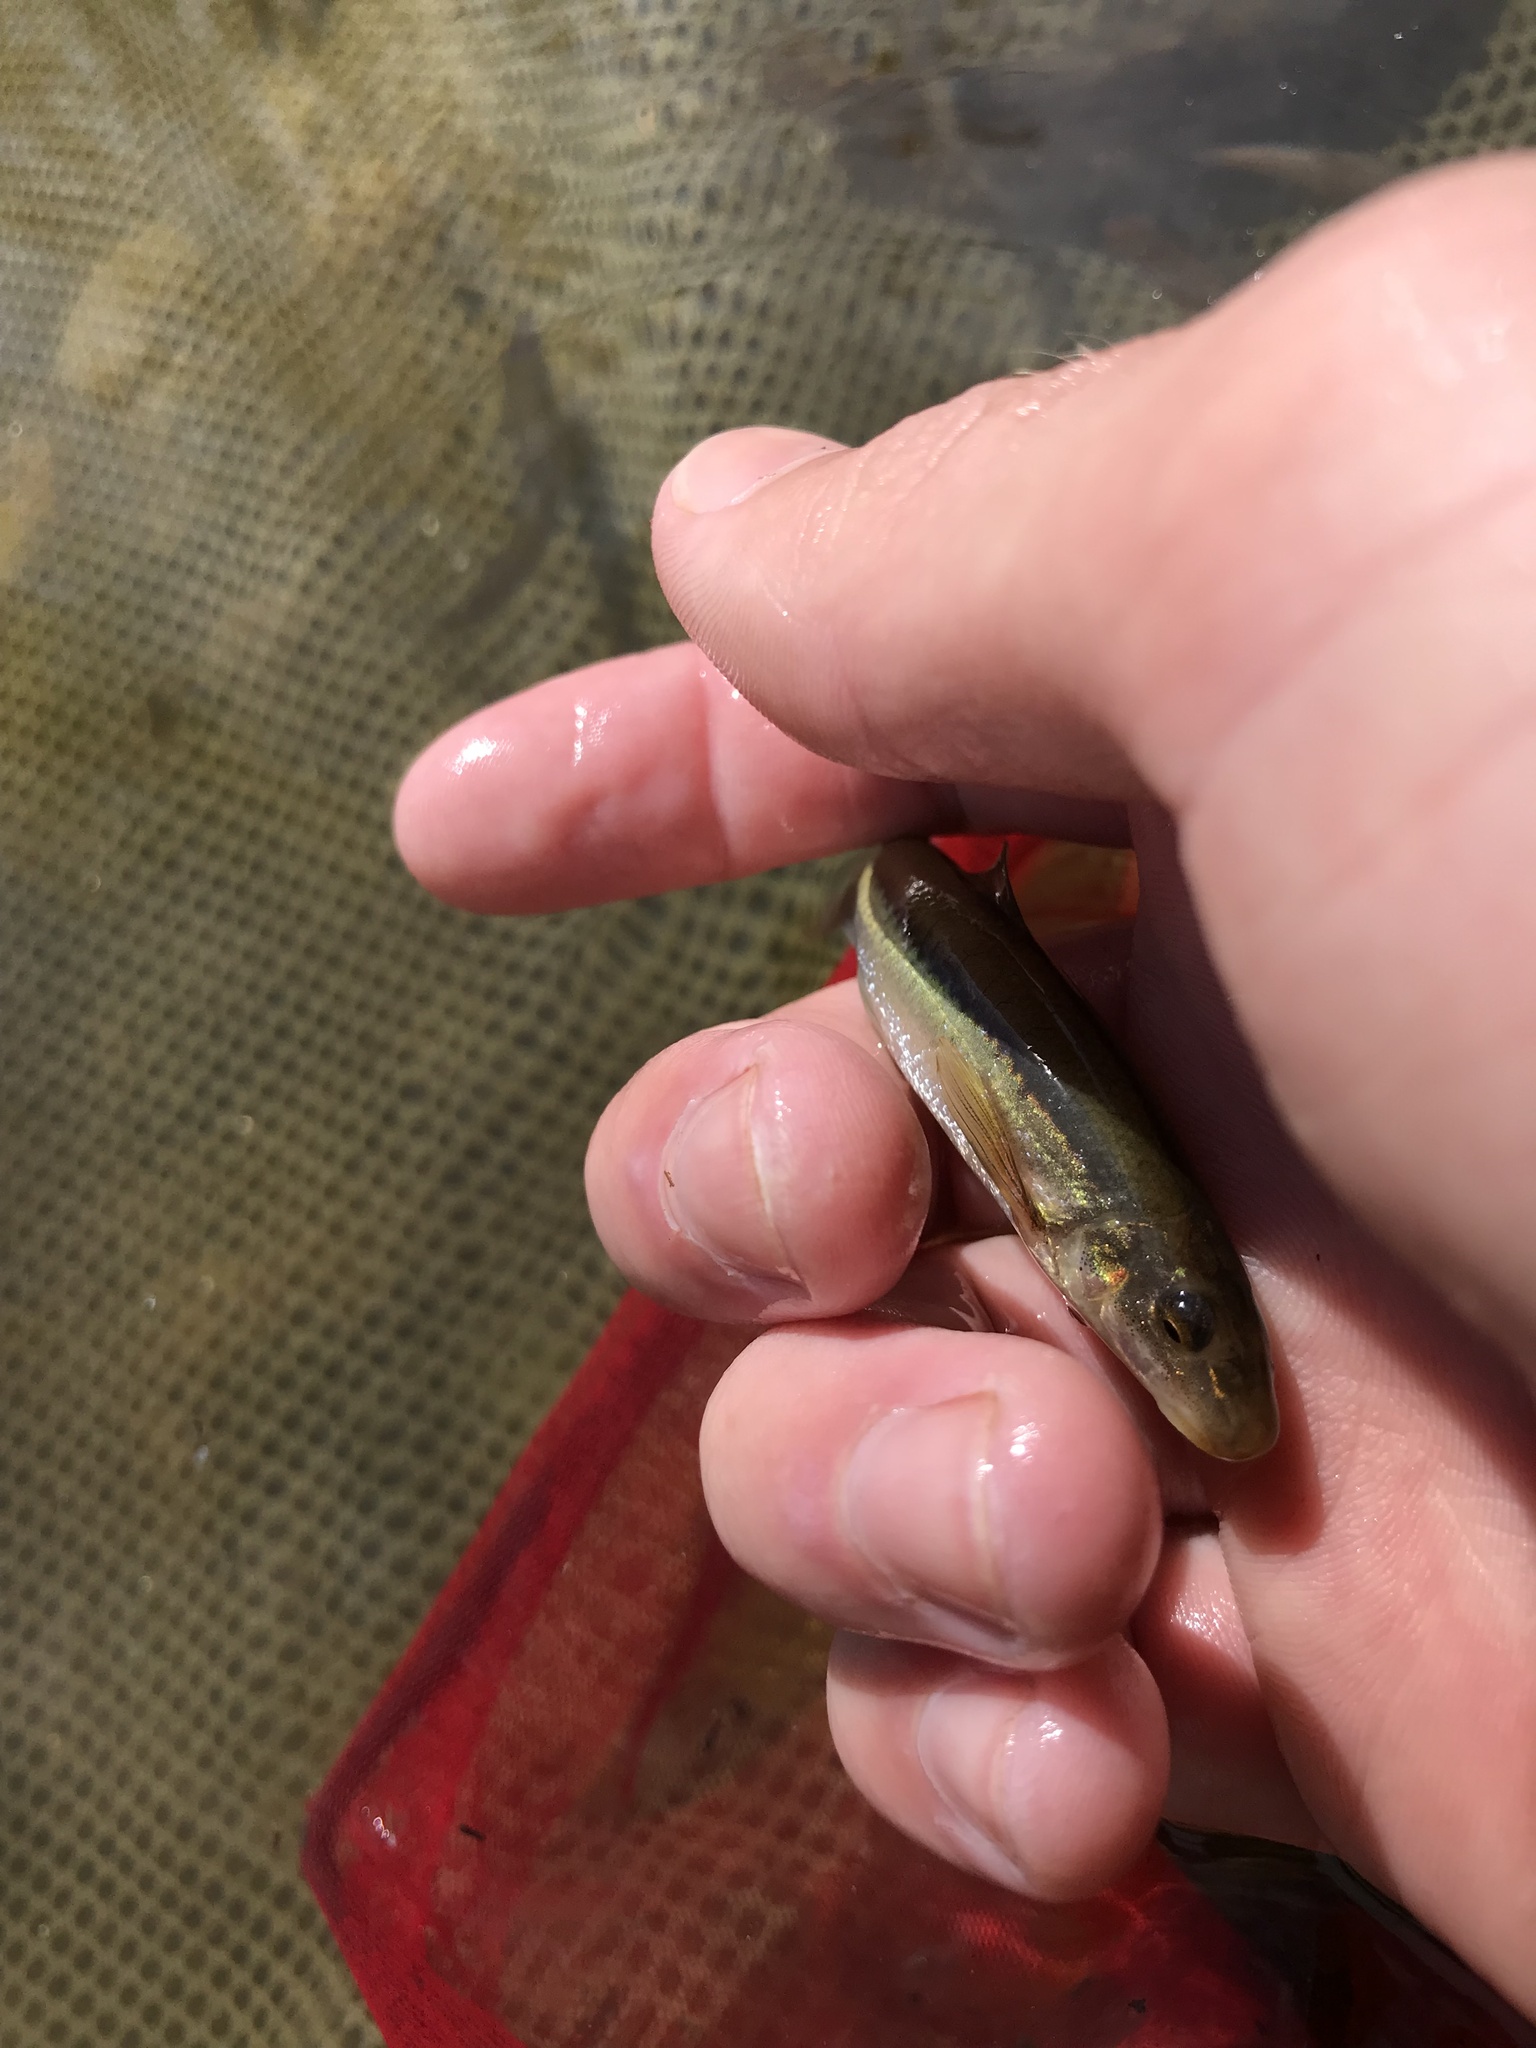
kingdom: Animalia
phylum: Chordata
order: Cypriniformes
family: Cyprinidae
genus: Phenacobius
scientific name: Phenacobius crassilabrum
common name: Fatlips minnow
